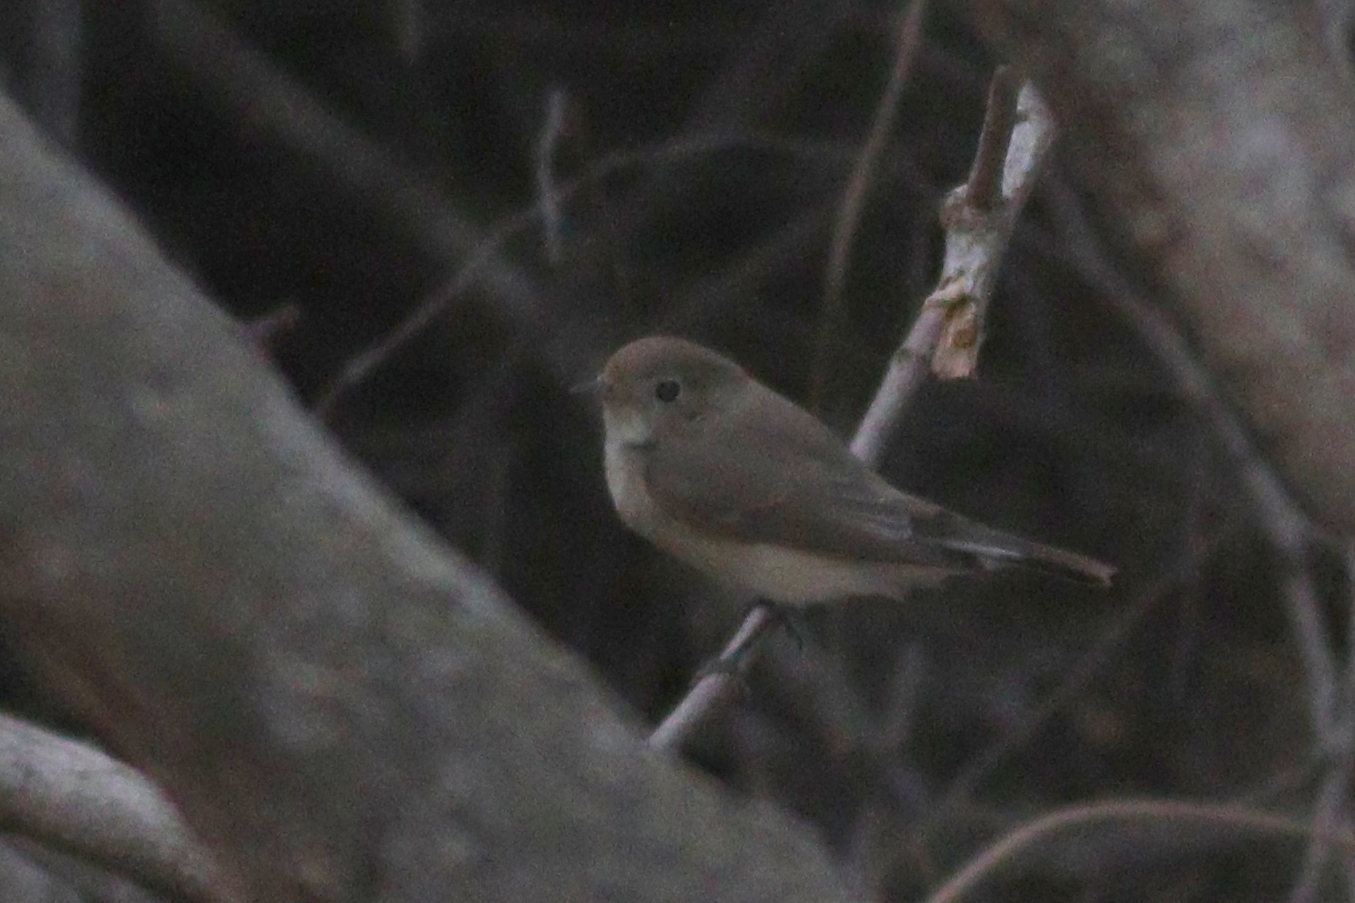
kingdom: Animalia
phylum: Chordata
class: Aves
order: Passeriformes
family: Muscicapidae
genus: Ficedula
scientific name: Ficedula parva
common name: Red-breasted flycatcher
